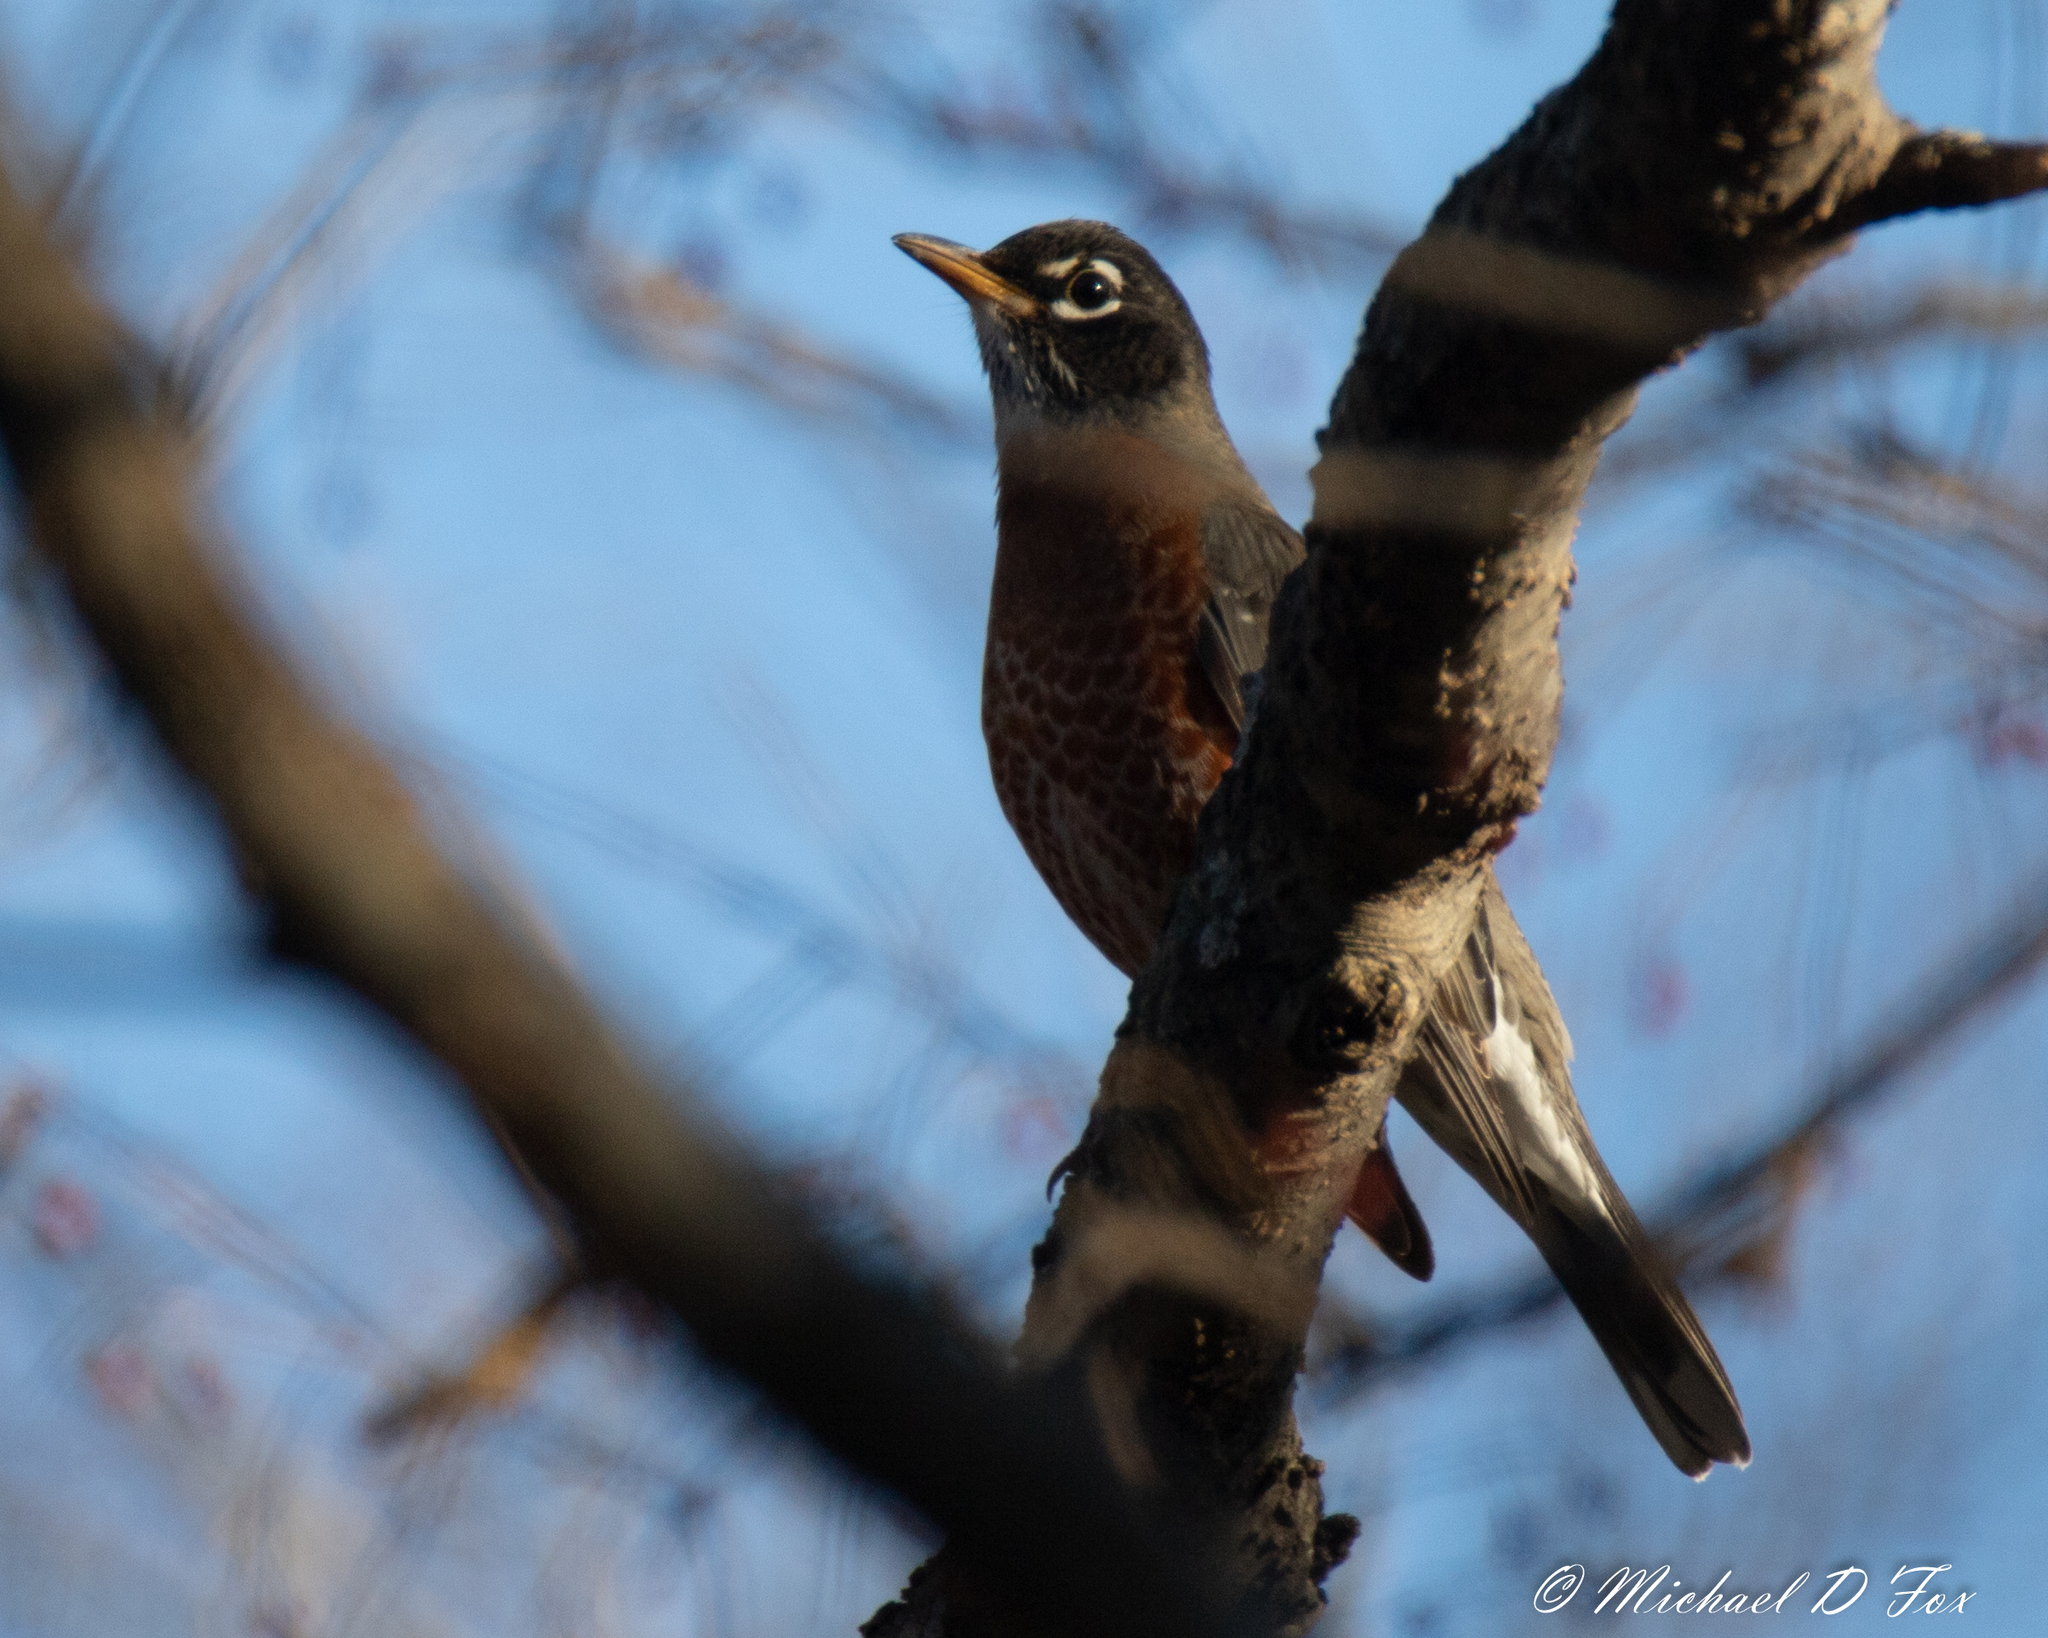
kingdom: Animalia
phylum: Chordata
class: Aves
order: Passeriformes
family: Turdidae
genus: Turdus
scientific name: Turdus migratorius
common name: American robin
